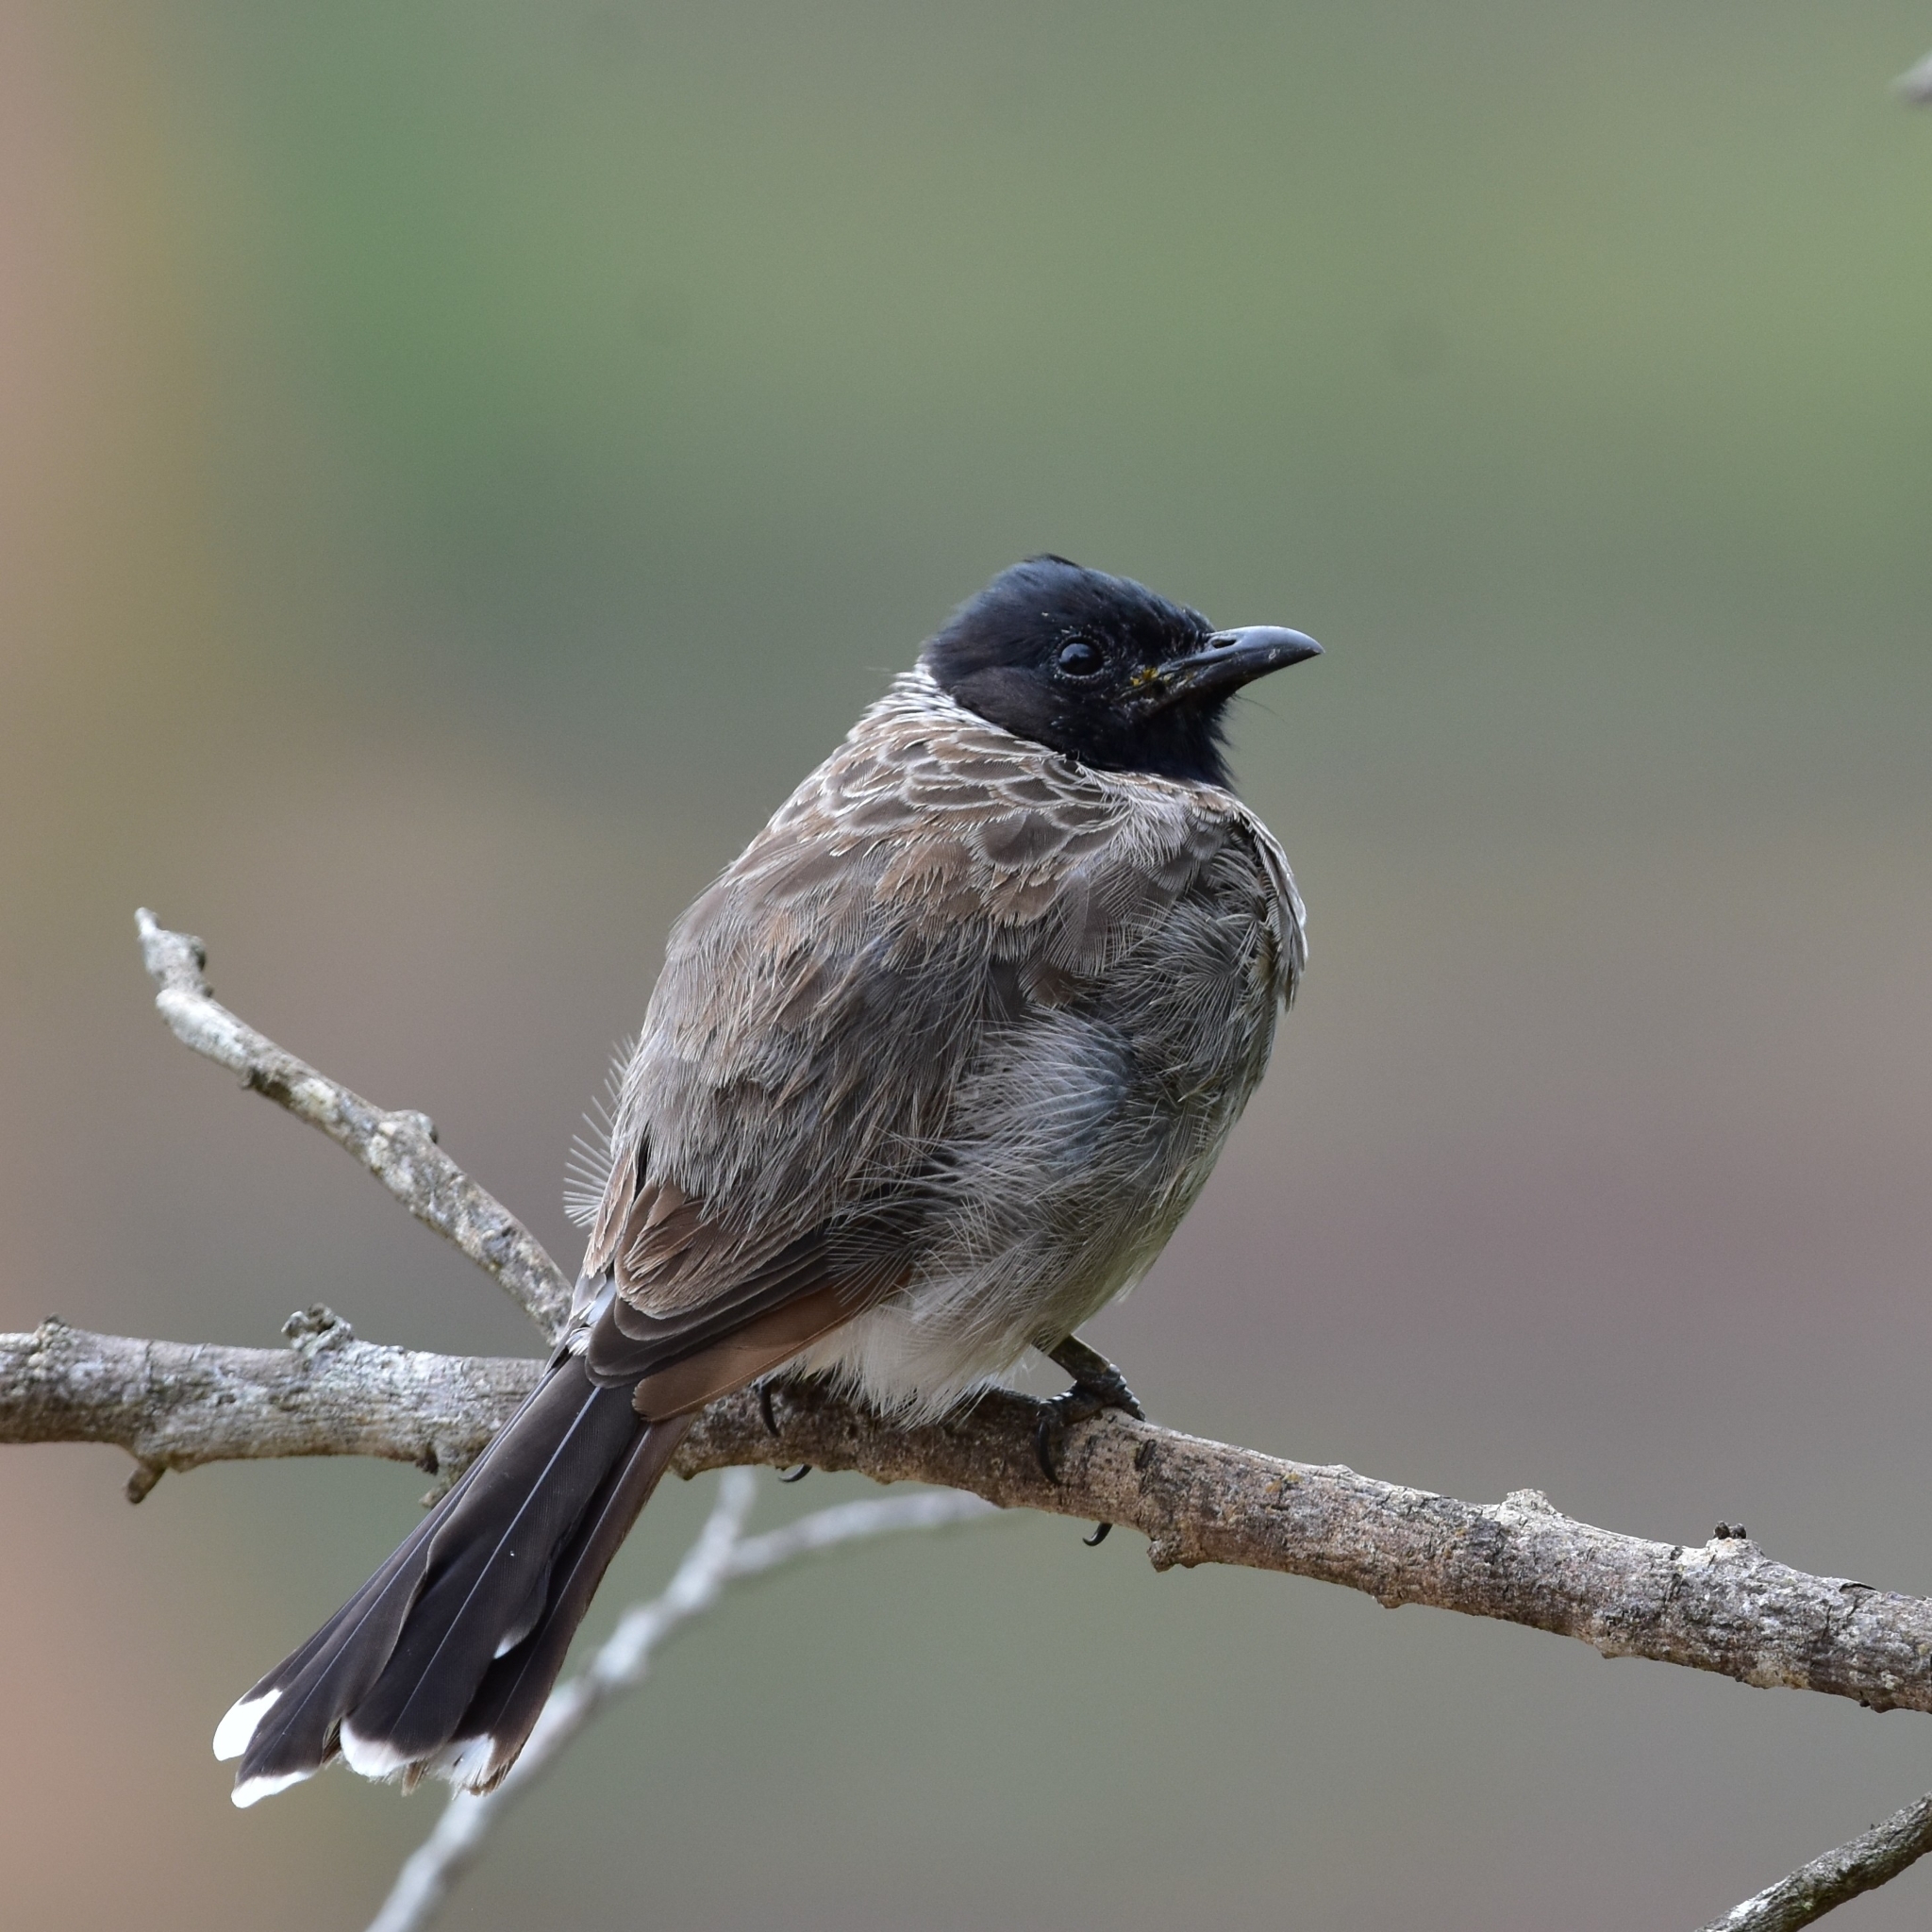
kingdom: Animalia
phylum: Chordata
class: Aves
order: Passeriformes
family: Pycnonotidae
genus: Pycnonotus
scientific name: Pycnonotus cafer
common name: Red-vented bulbul
